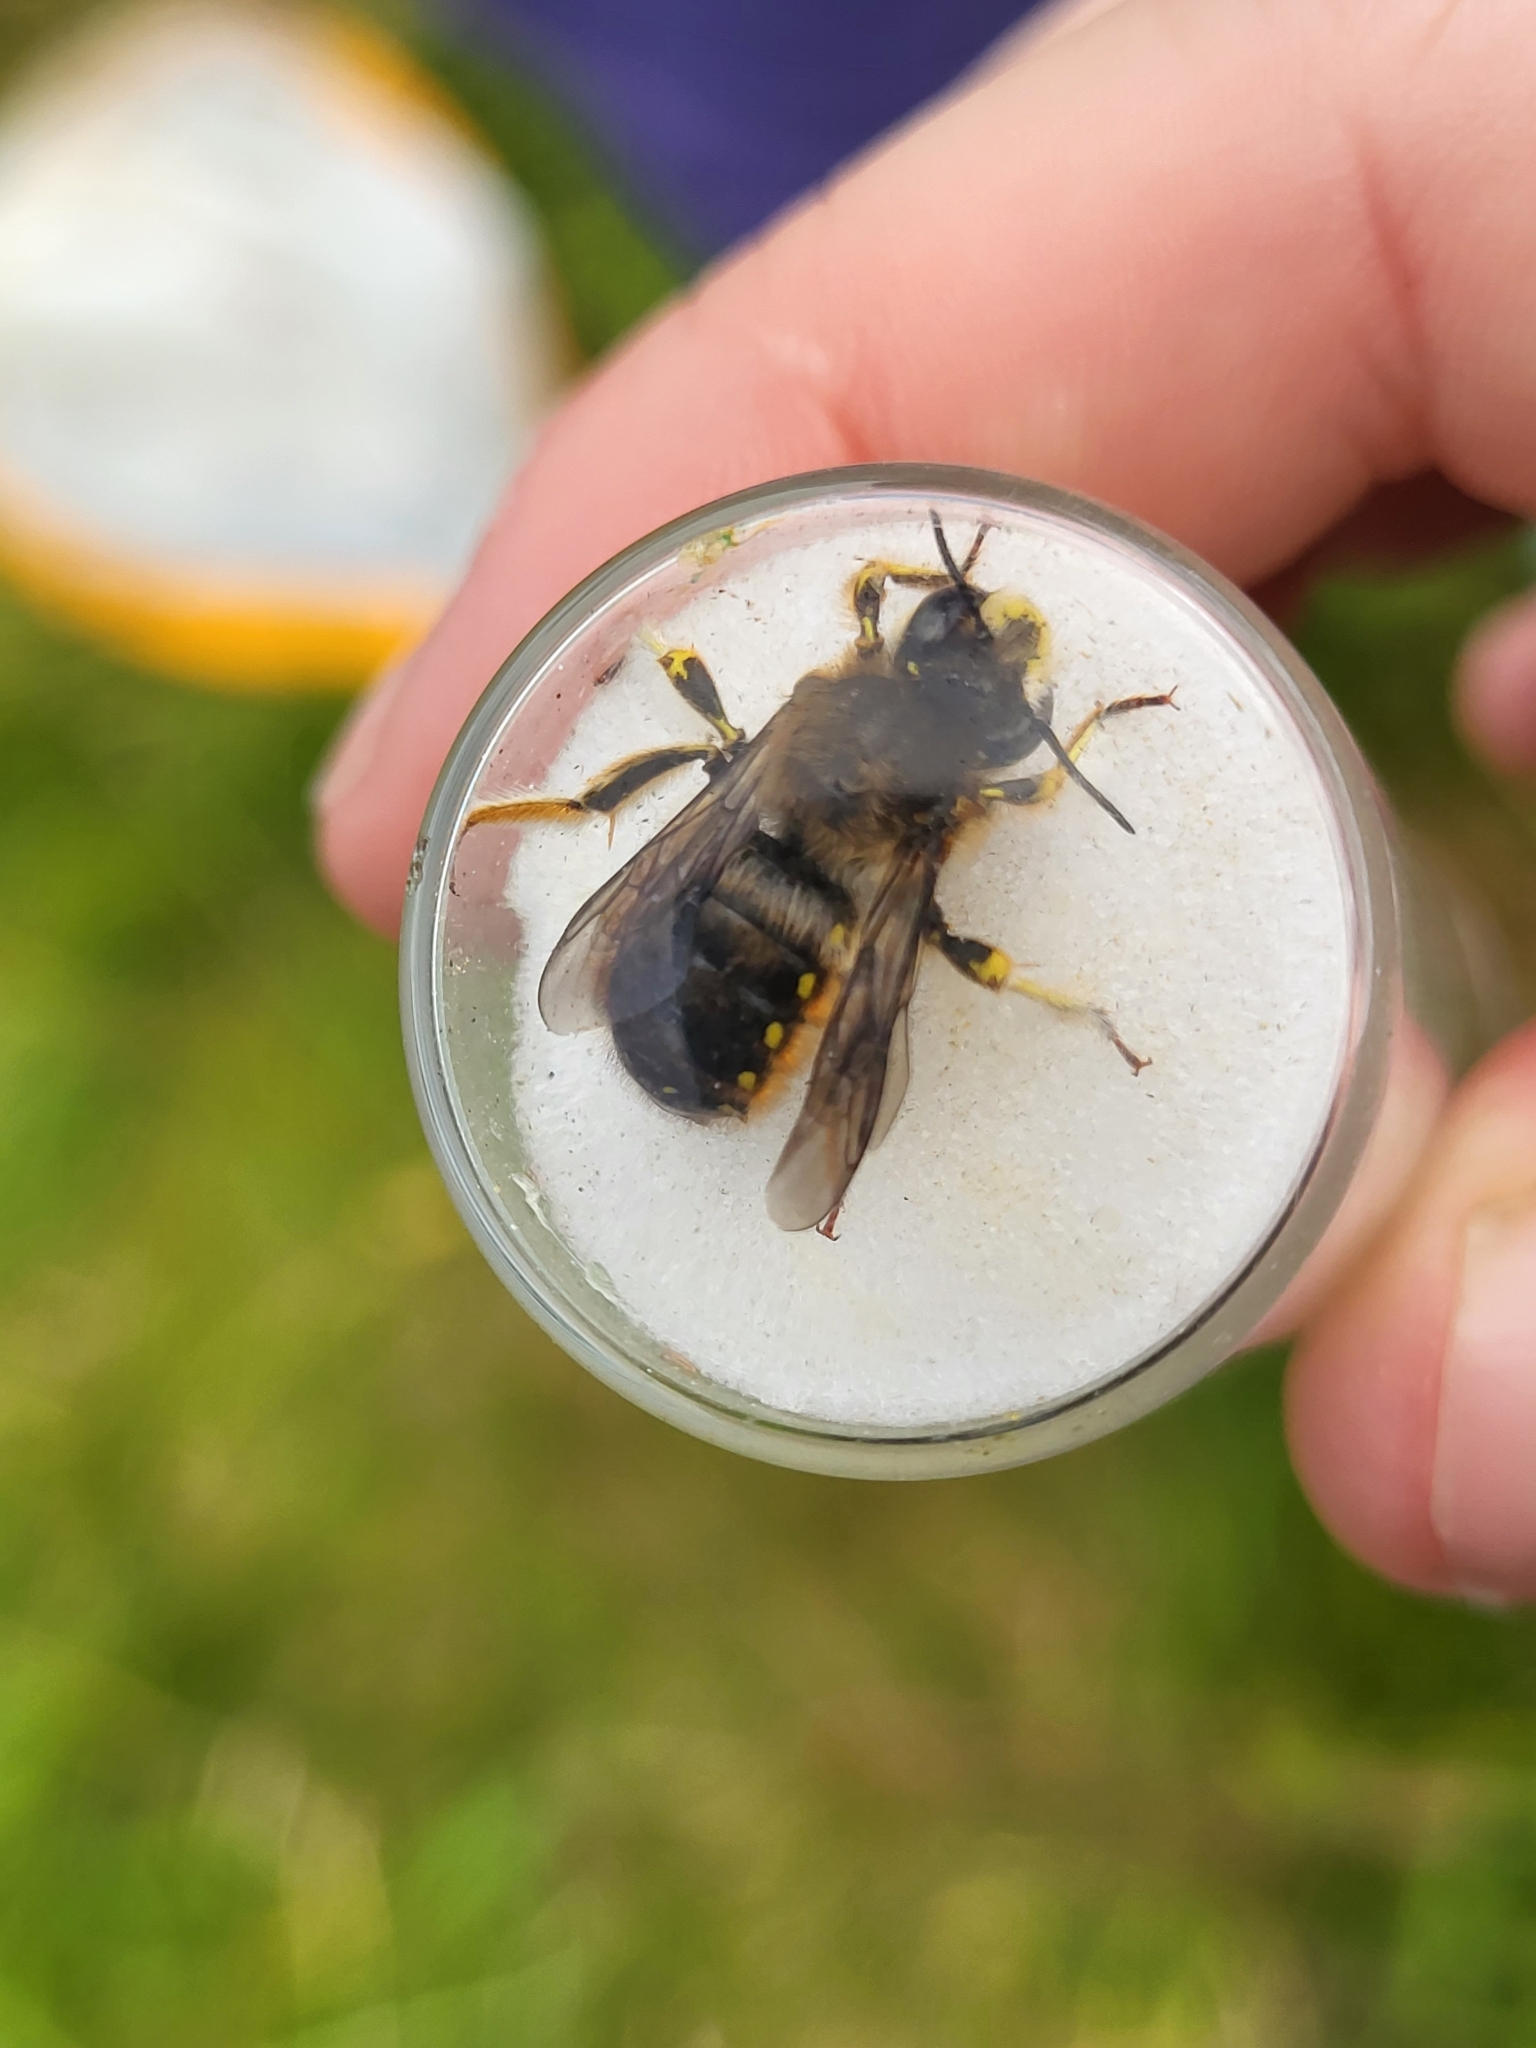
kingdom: Animalia
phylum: Arthropoda
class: Insecta
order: Hymenoptera
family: Megachilidae
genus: Anthidium
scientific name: Anthidium manicatum
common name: Wool carder bee
